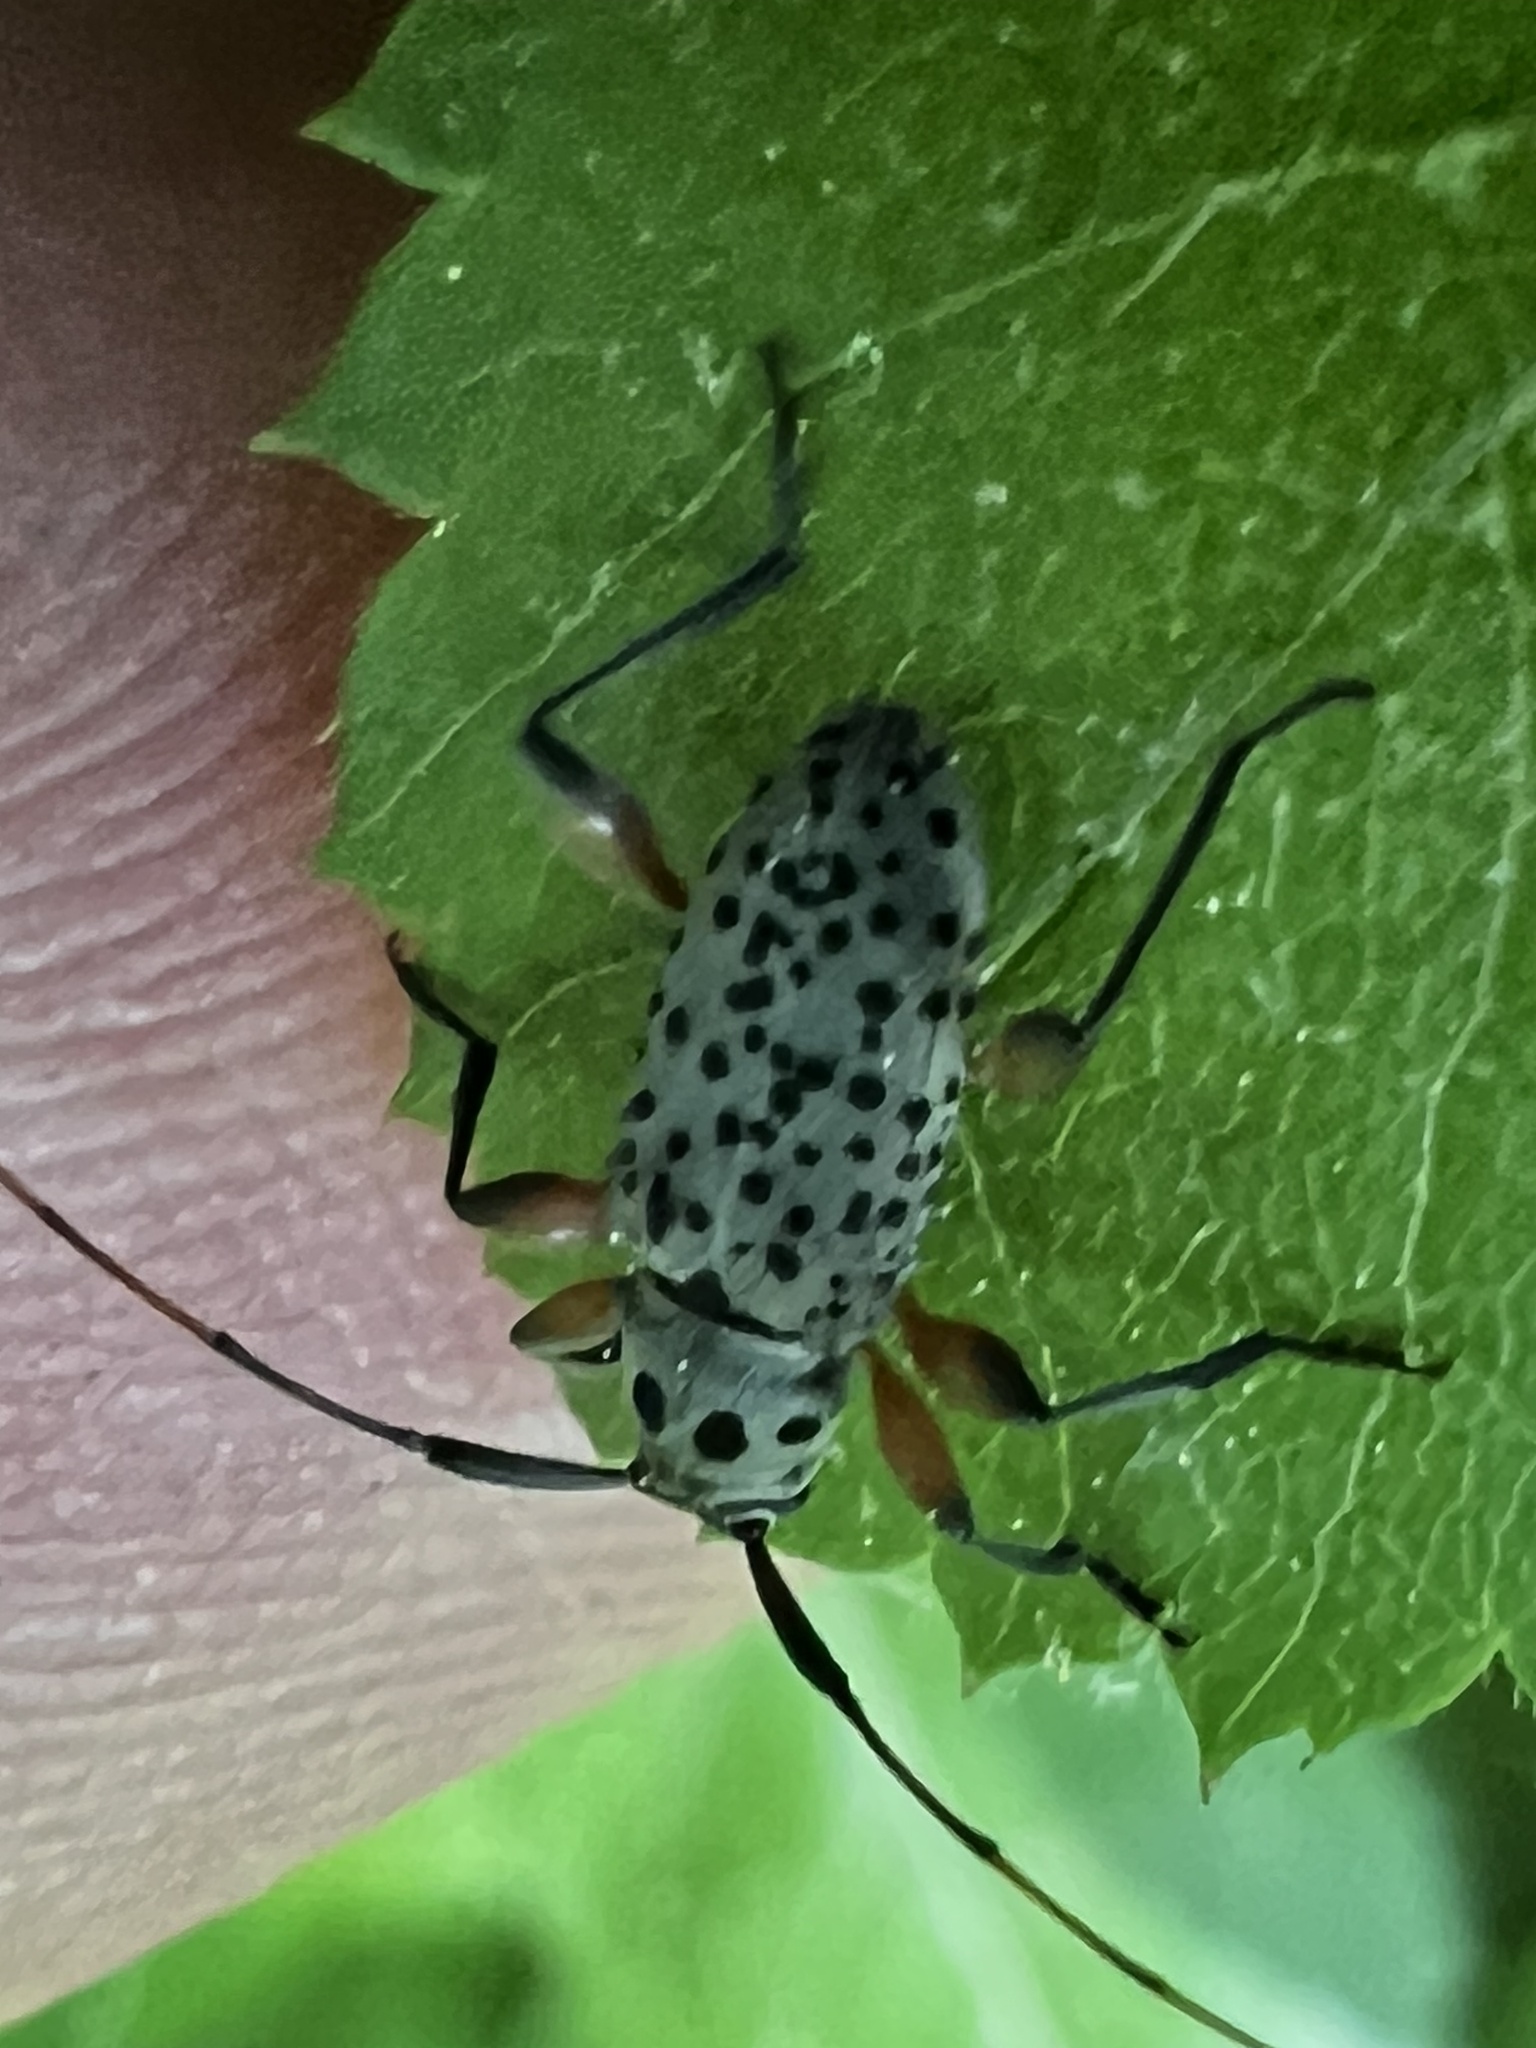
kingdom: Animalia
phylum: Arthropoda
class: Insecta
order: Coleoptera
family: Cerambycidae
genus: Hyperplatys
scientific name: Hyperplatys aspersa
